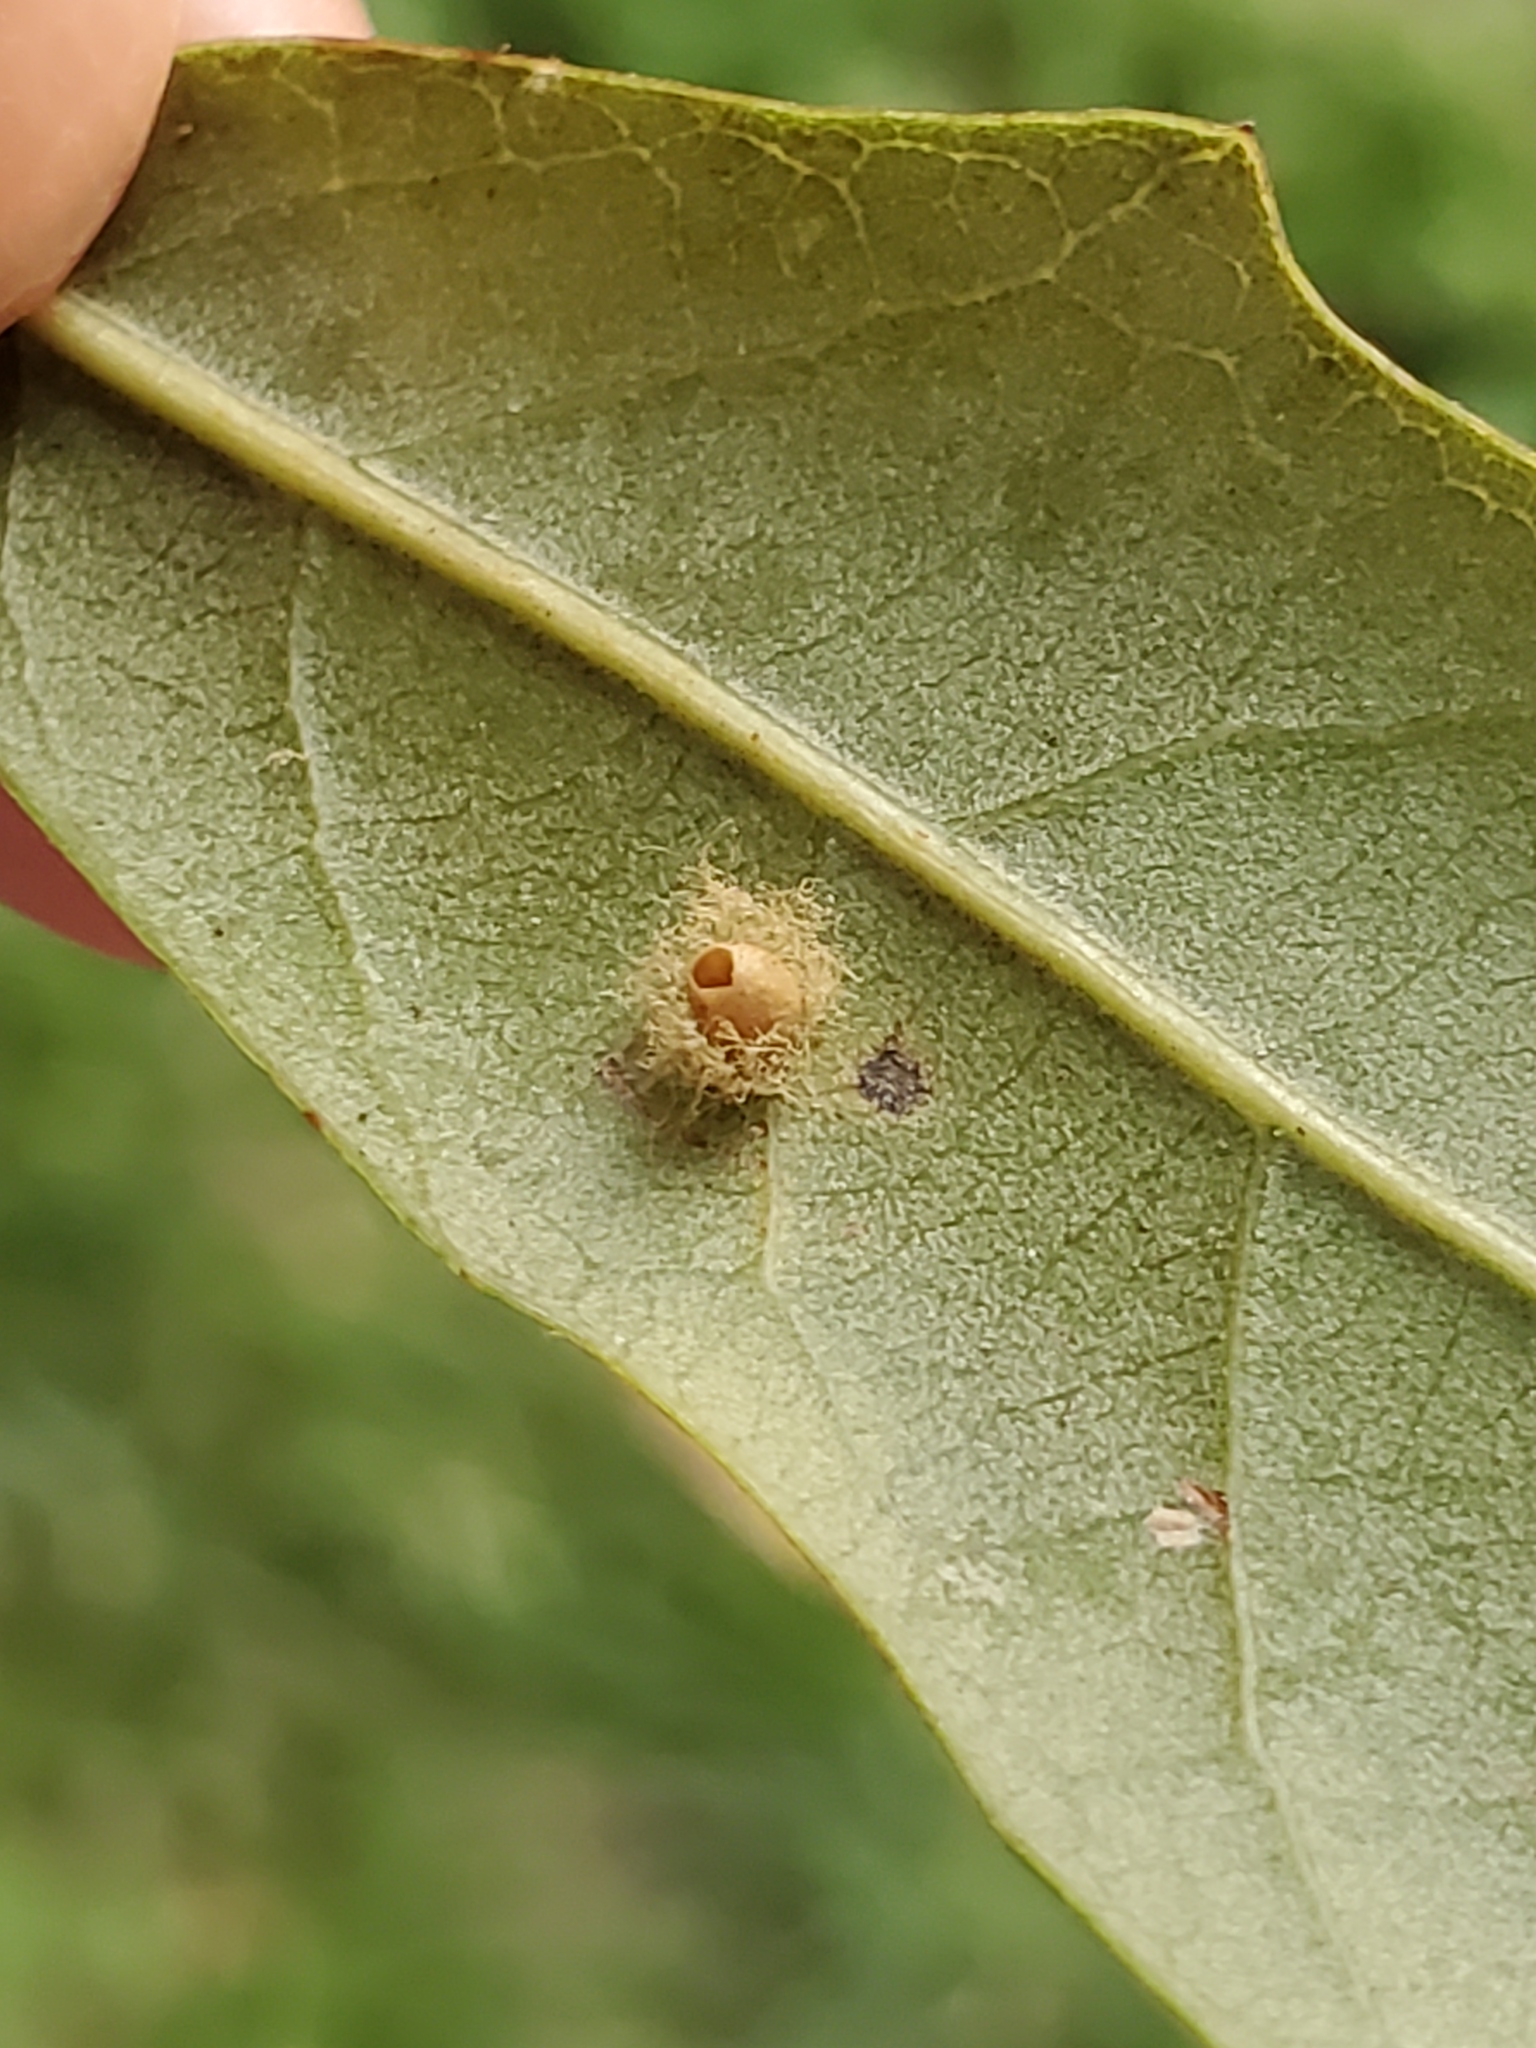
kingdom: Animalia
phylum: Arthropoda
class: Insecta
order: Hymenoptera
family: Cynipidae
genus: Andricus
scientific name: Andricus Druon quercuslanigerum
